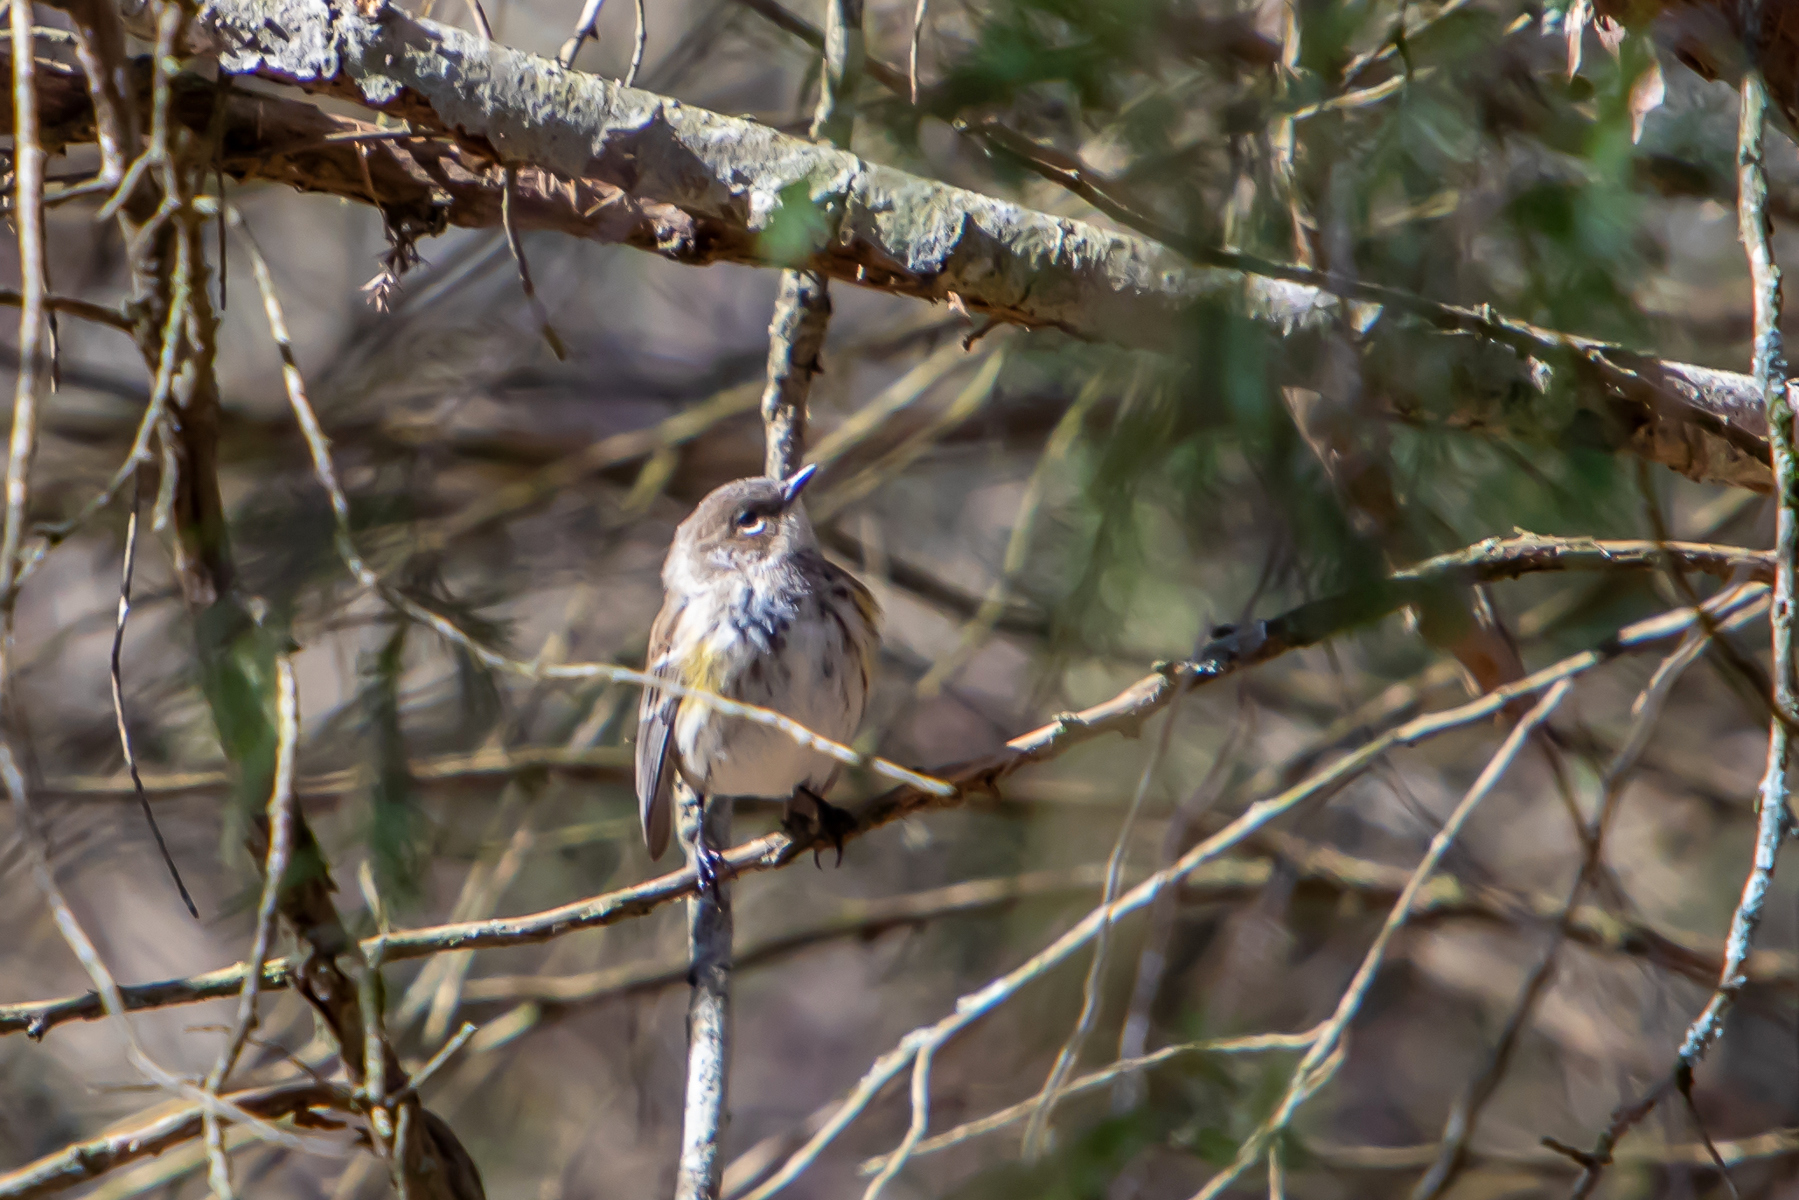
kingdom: Animalia
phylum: Chordata
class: Aves
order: Passeriformes
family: Parulidae
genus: Setophaga
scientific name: Setophaga coronata
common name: Myrtle warbler
